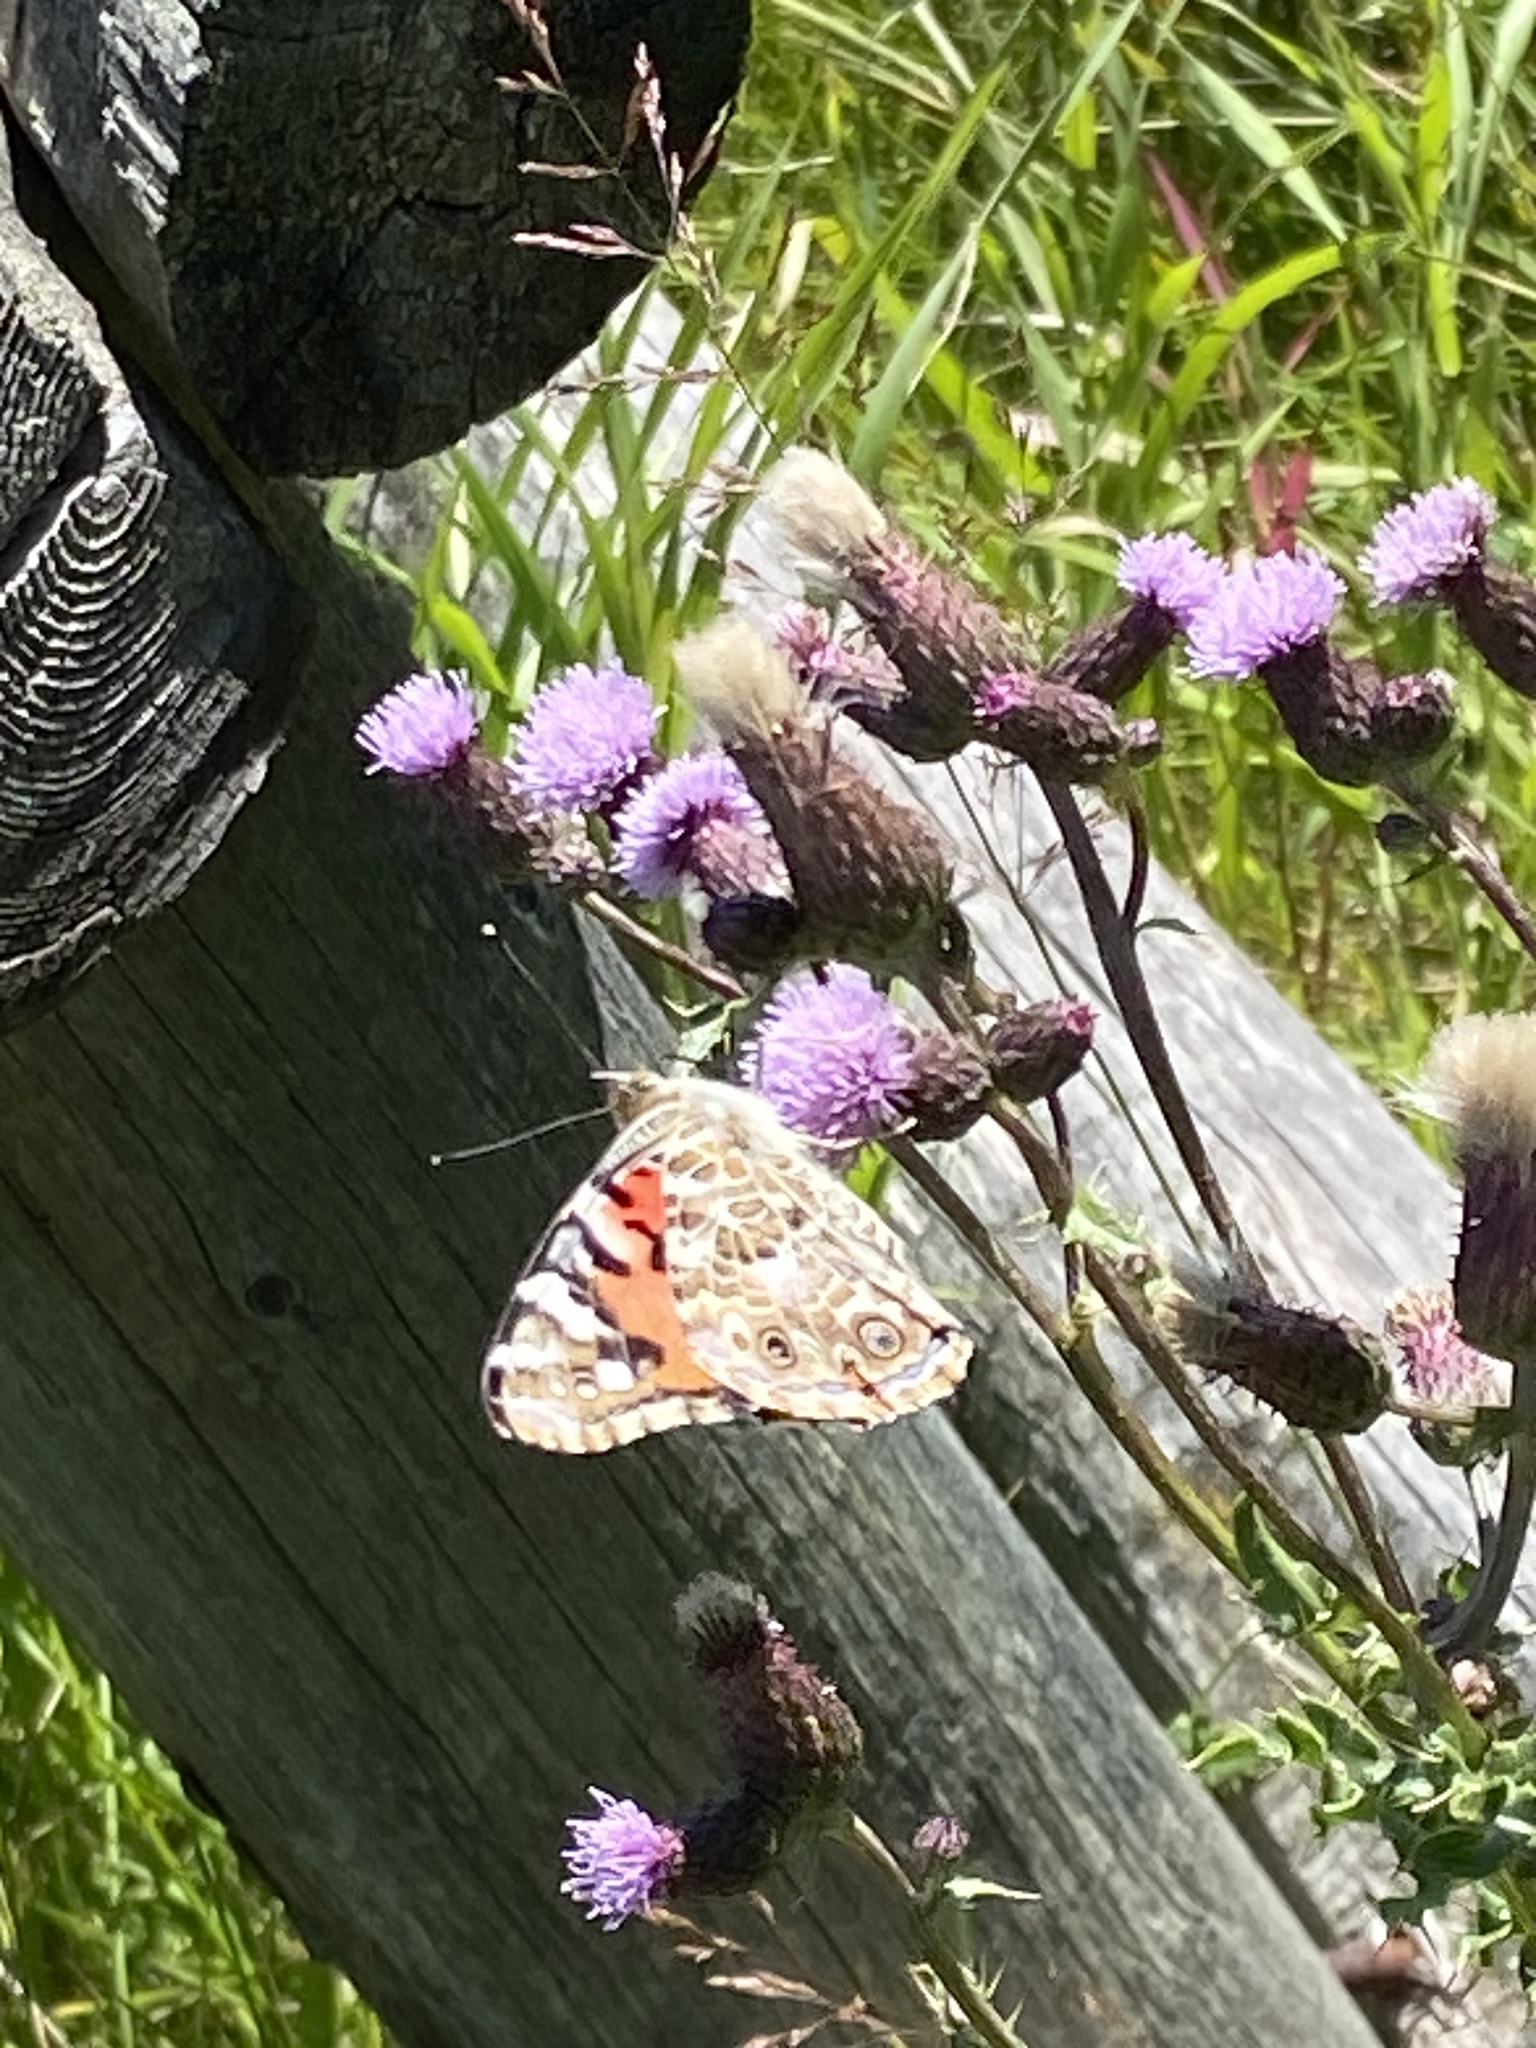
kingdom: Animalia
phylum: Arthropoda
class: Insecta
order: Lepidoptera
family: Nymphalidae
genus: Vanessa
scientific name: Vanessa cardui
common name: Painted lady
